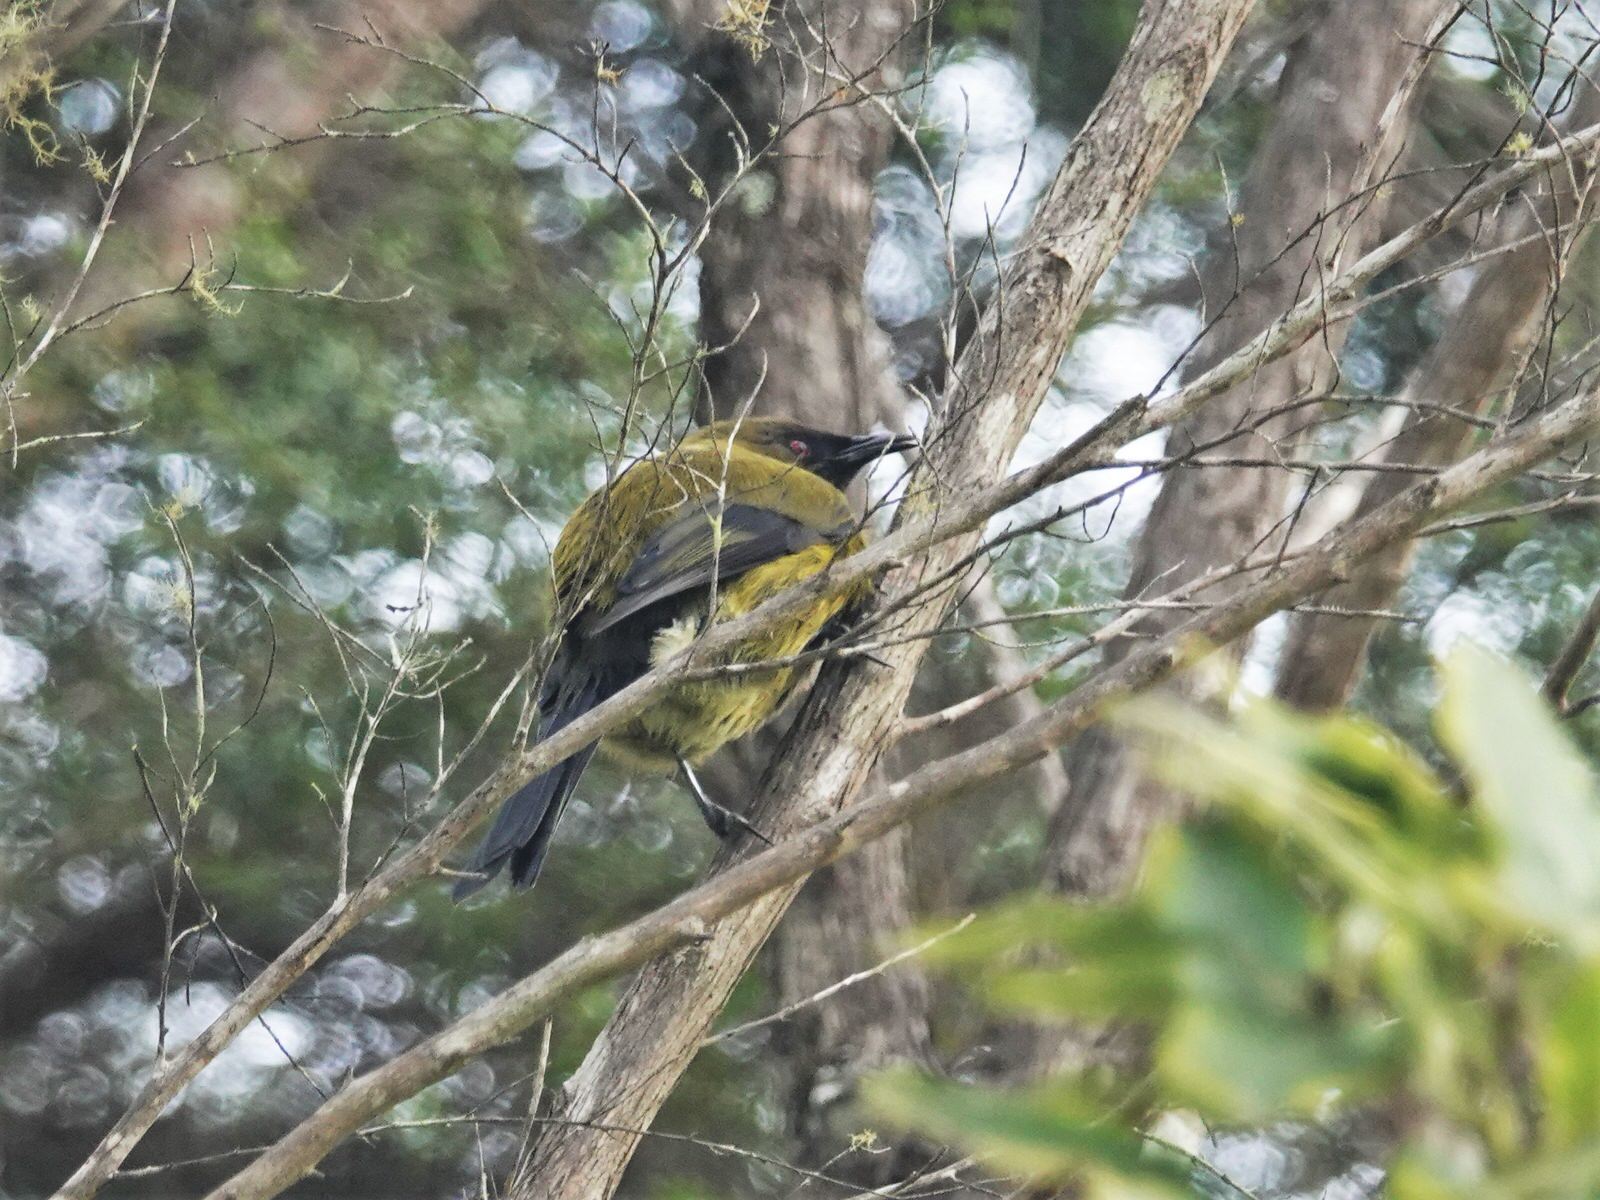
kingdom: Animalia
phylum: Chordata
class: Aves
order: Passeriformes
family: Meliphagidae
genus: Anthornis
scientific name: Anthornis melanura
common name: New zealand bellbird
